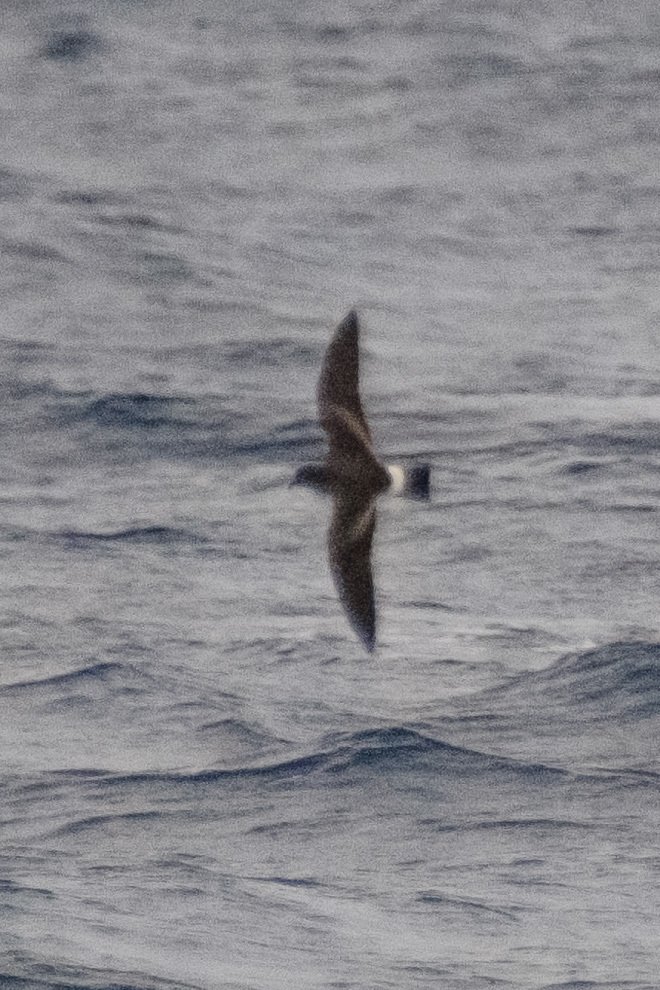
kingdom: Animalia
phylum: Chordata
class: Aves
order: Procellariiformes
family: Hydrobatidae
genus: Oceanodroma
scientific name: Oceanodroma castro
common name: Band-rumped storm-petrel
